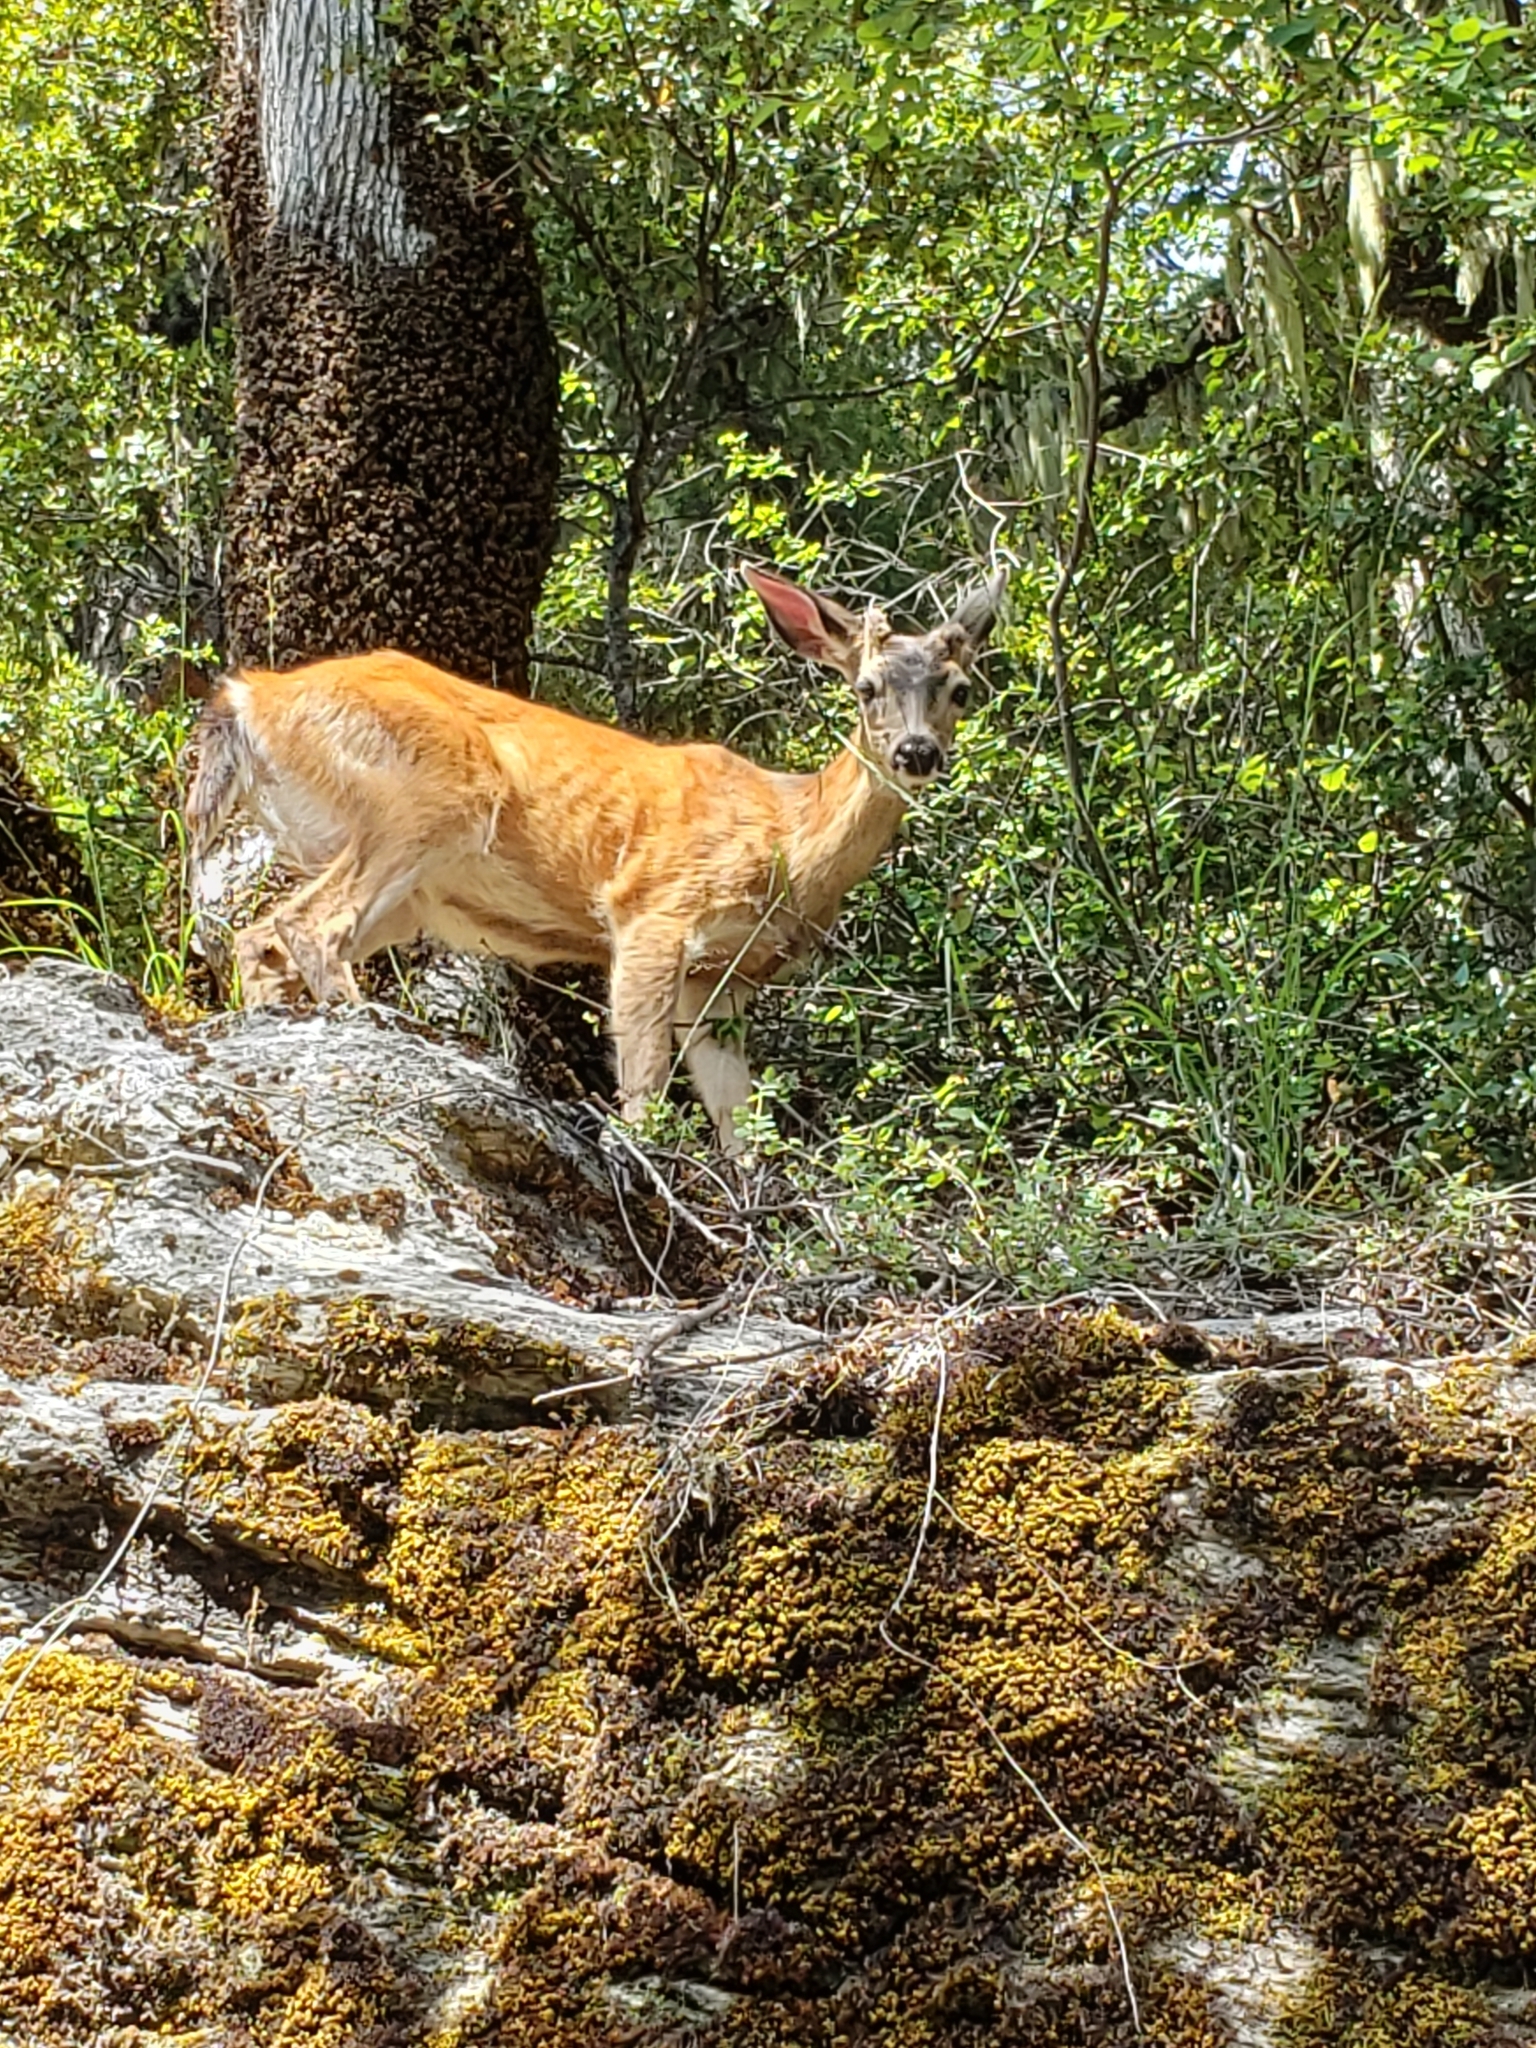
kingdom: Animalia
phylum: Chordata
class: Mammalia
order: Artiodactyla
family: Cervidae
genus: Odocoileus
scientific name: Odocoileus hemionus
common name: Mule deer
